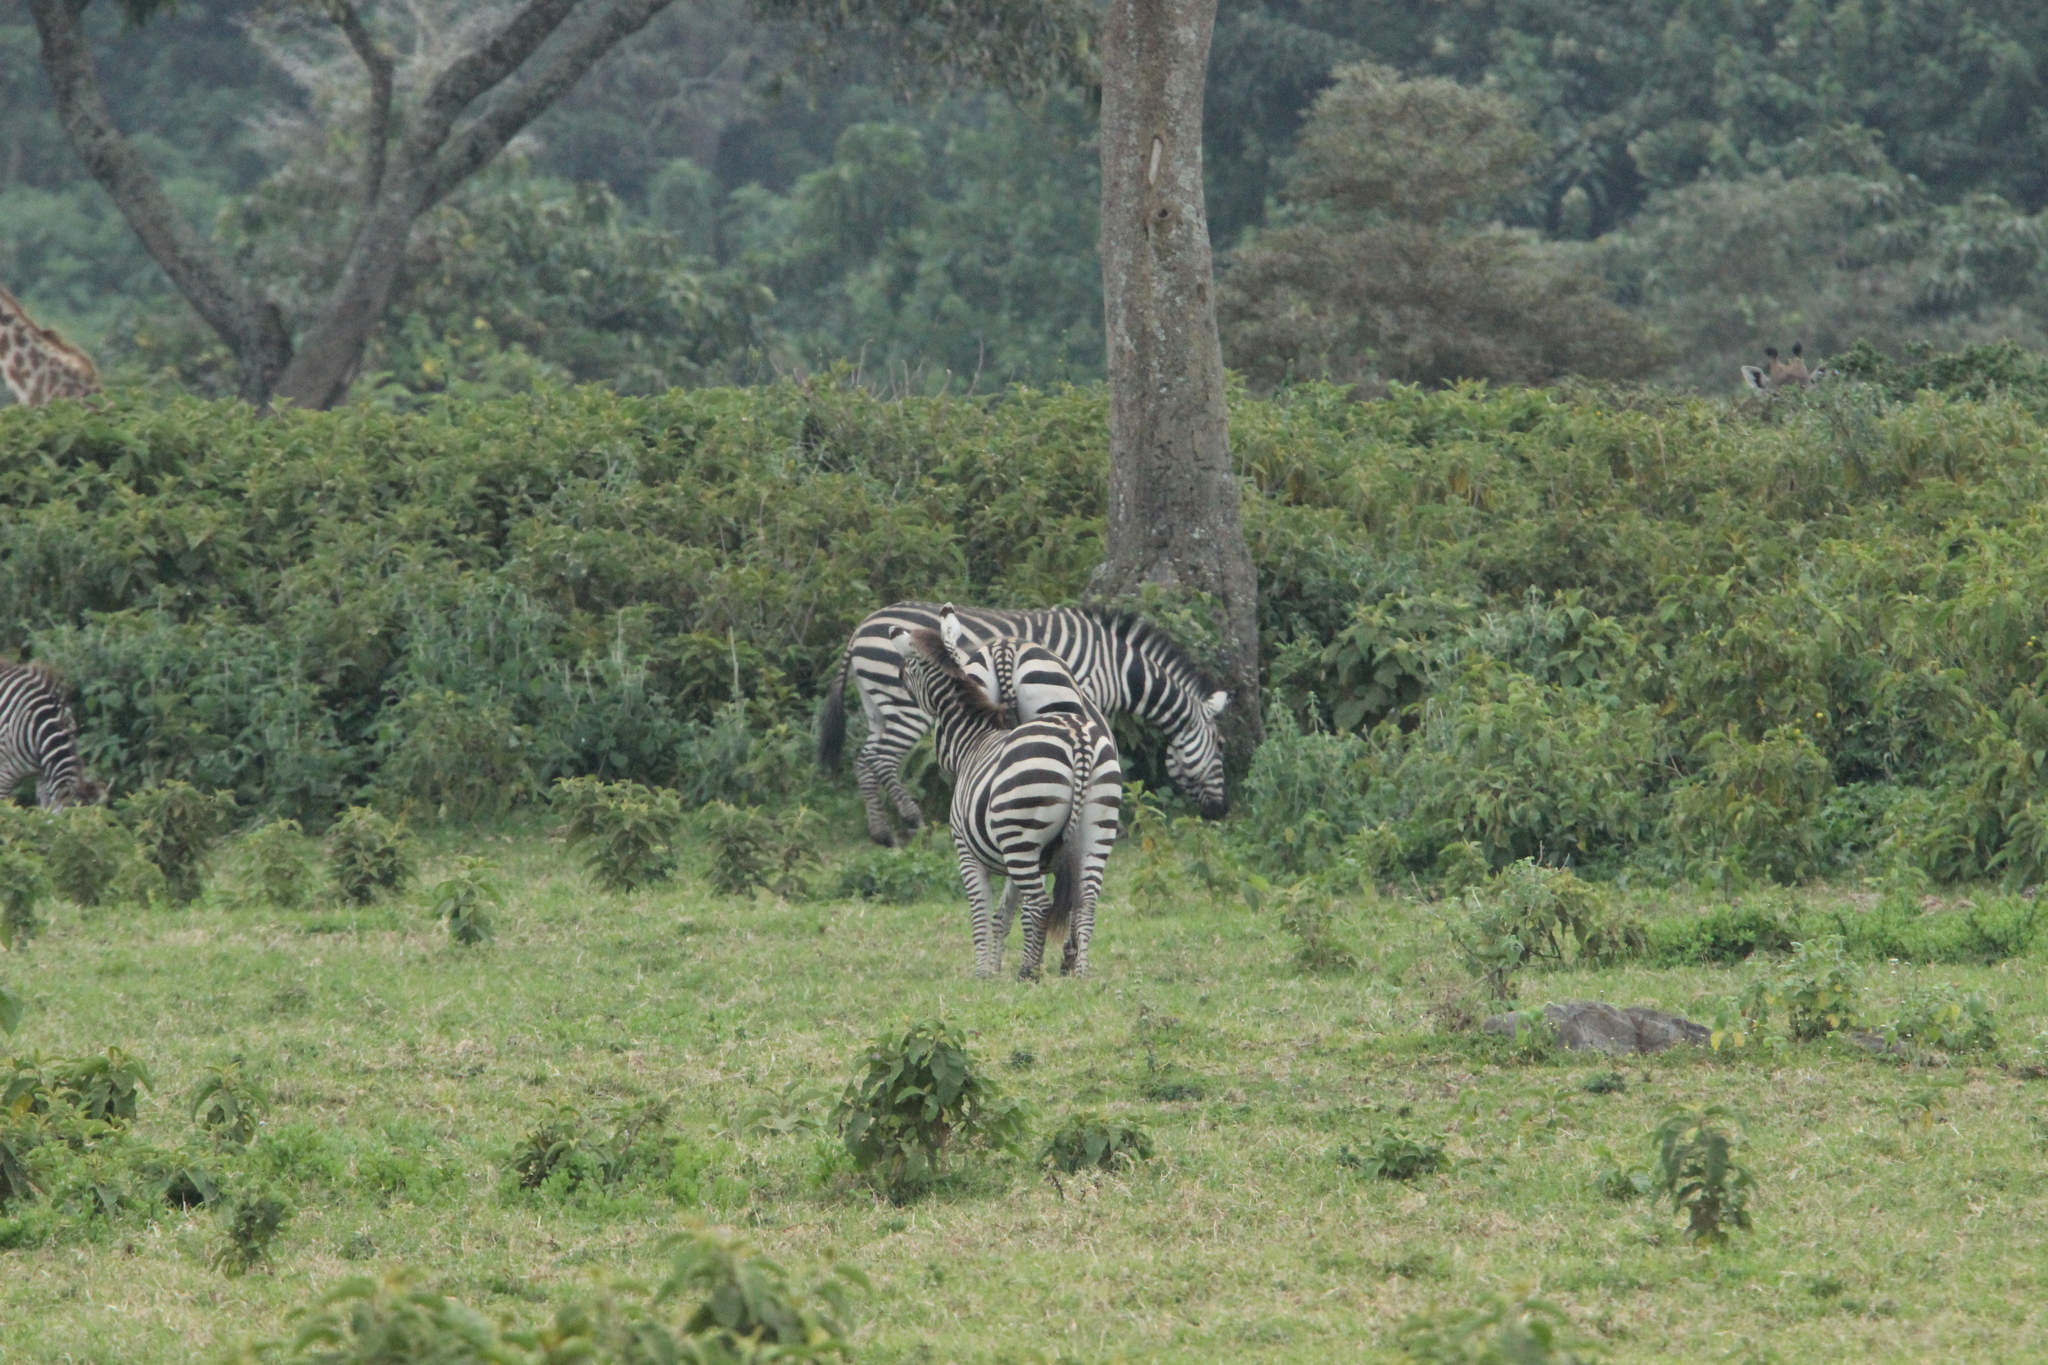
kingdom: Animalia
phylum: Chordata
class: Mammalia
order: Perissodactyla
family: Equidae
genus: Equus
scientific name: Equus quagga
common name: Plains zebra
